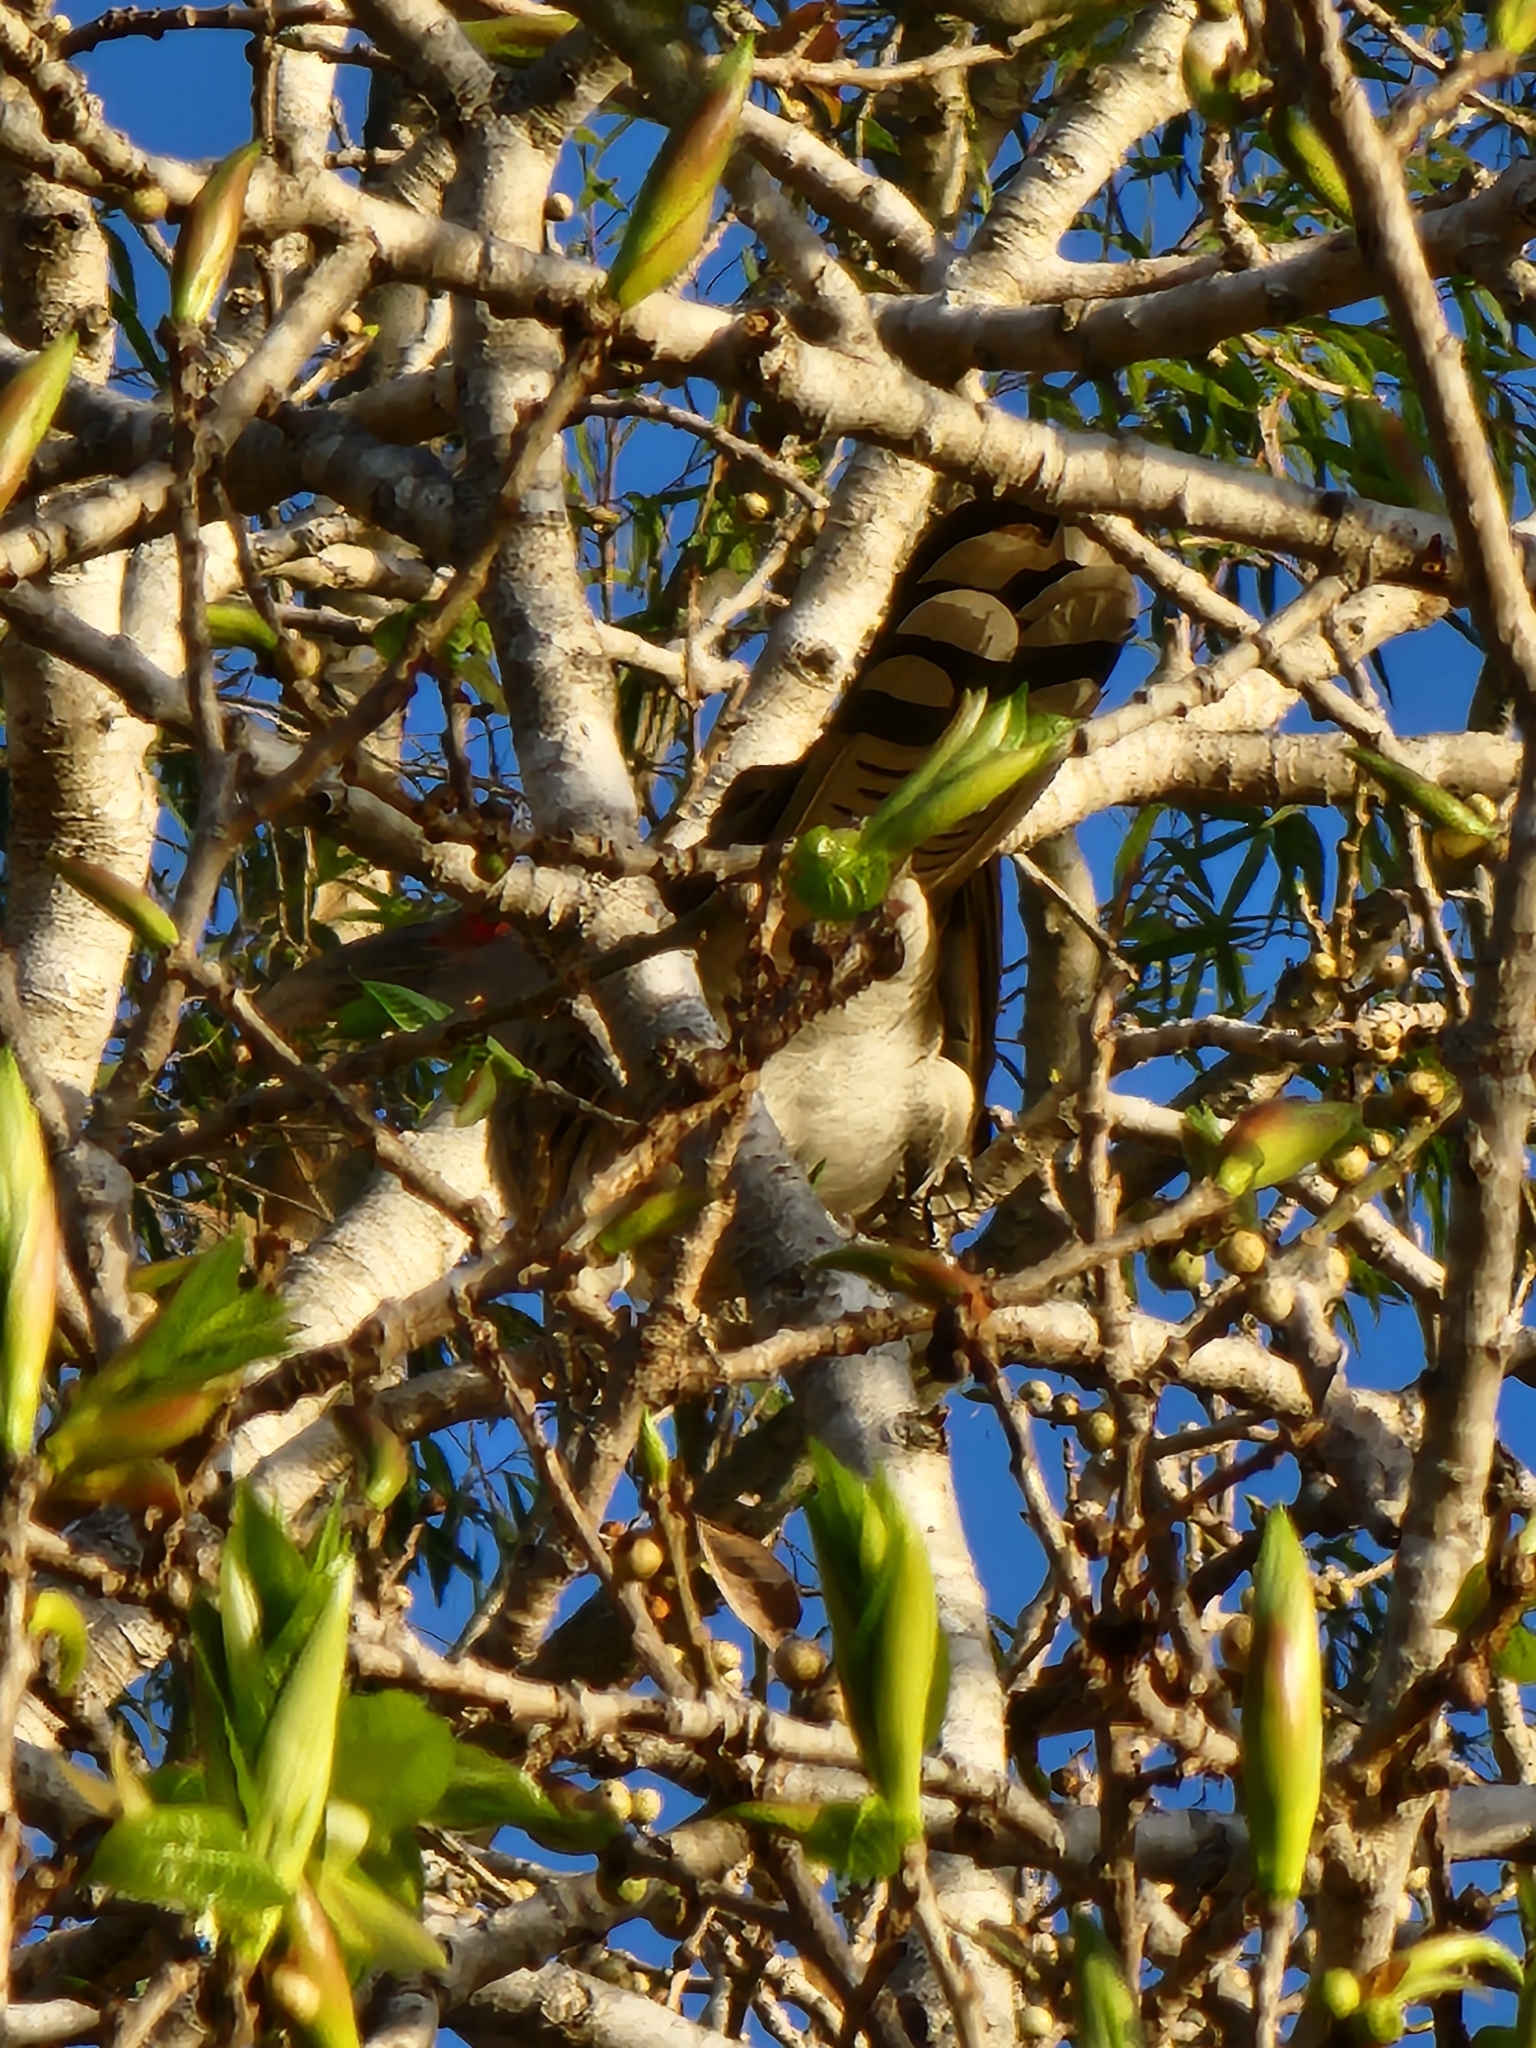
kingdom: Animalia
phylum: Chordata
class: Aves
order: Cuculiformes
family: Cuculidae
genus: Scythrops
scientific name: Scythrops novaehollandiae
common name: Channel-billed cuckoo
